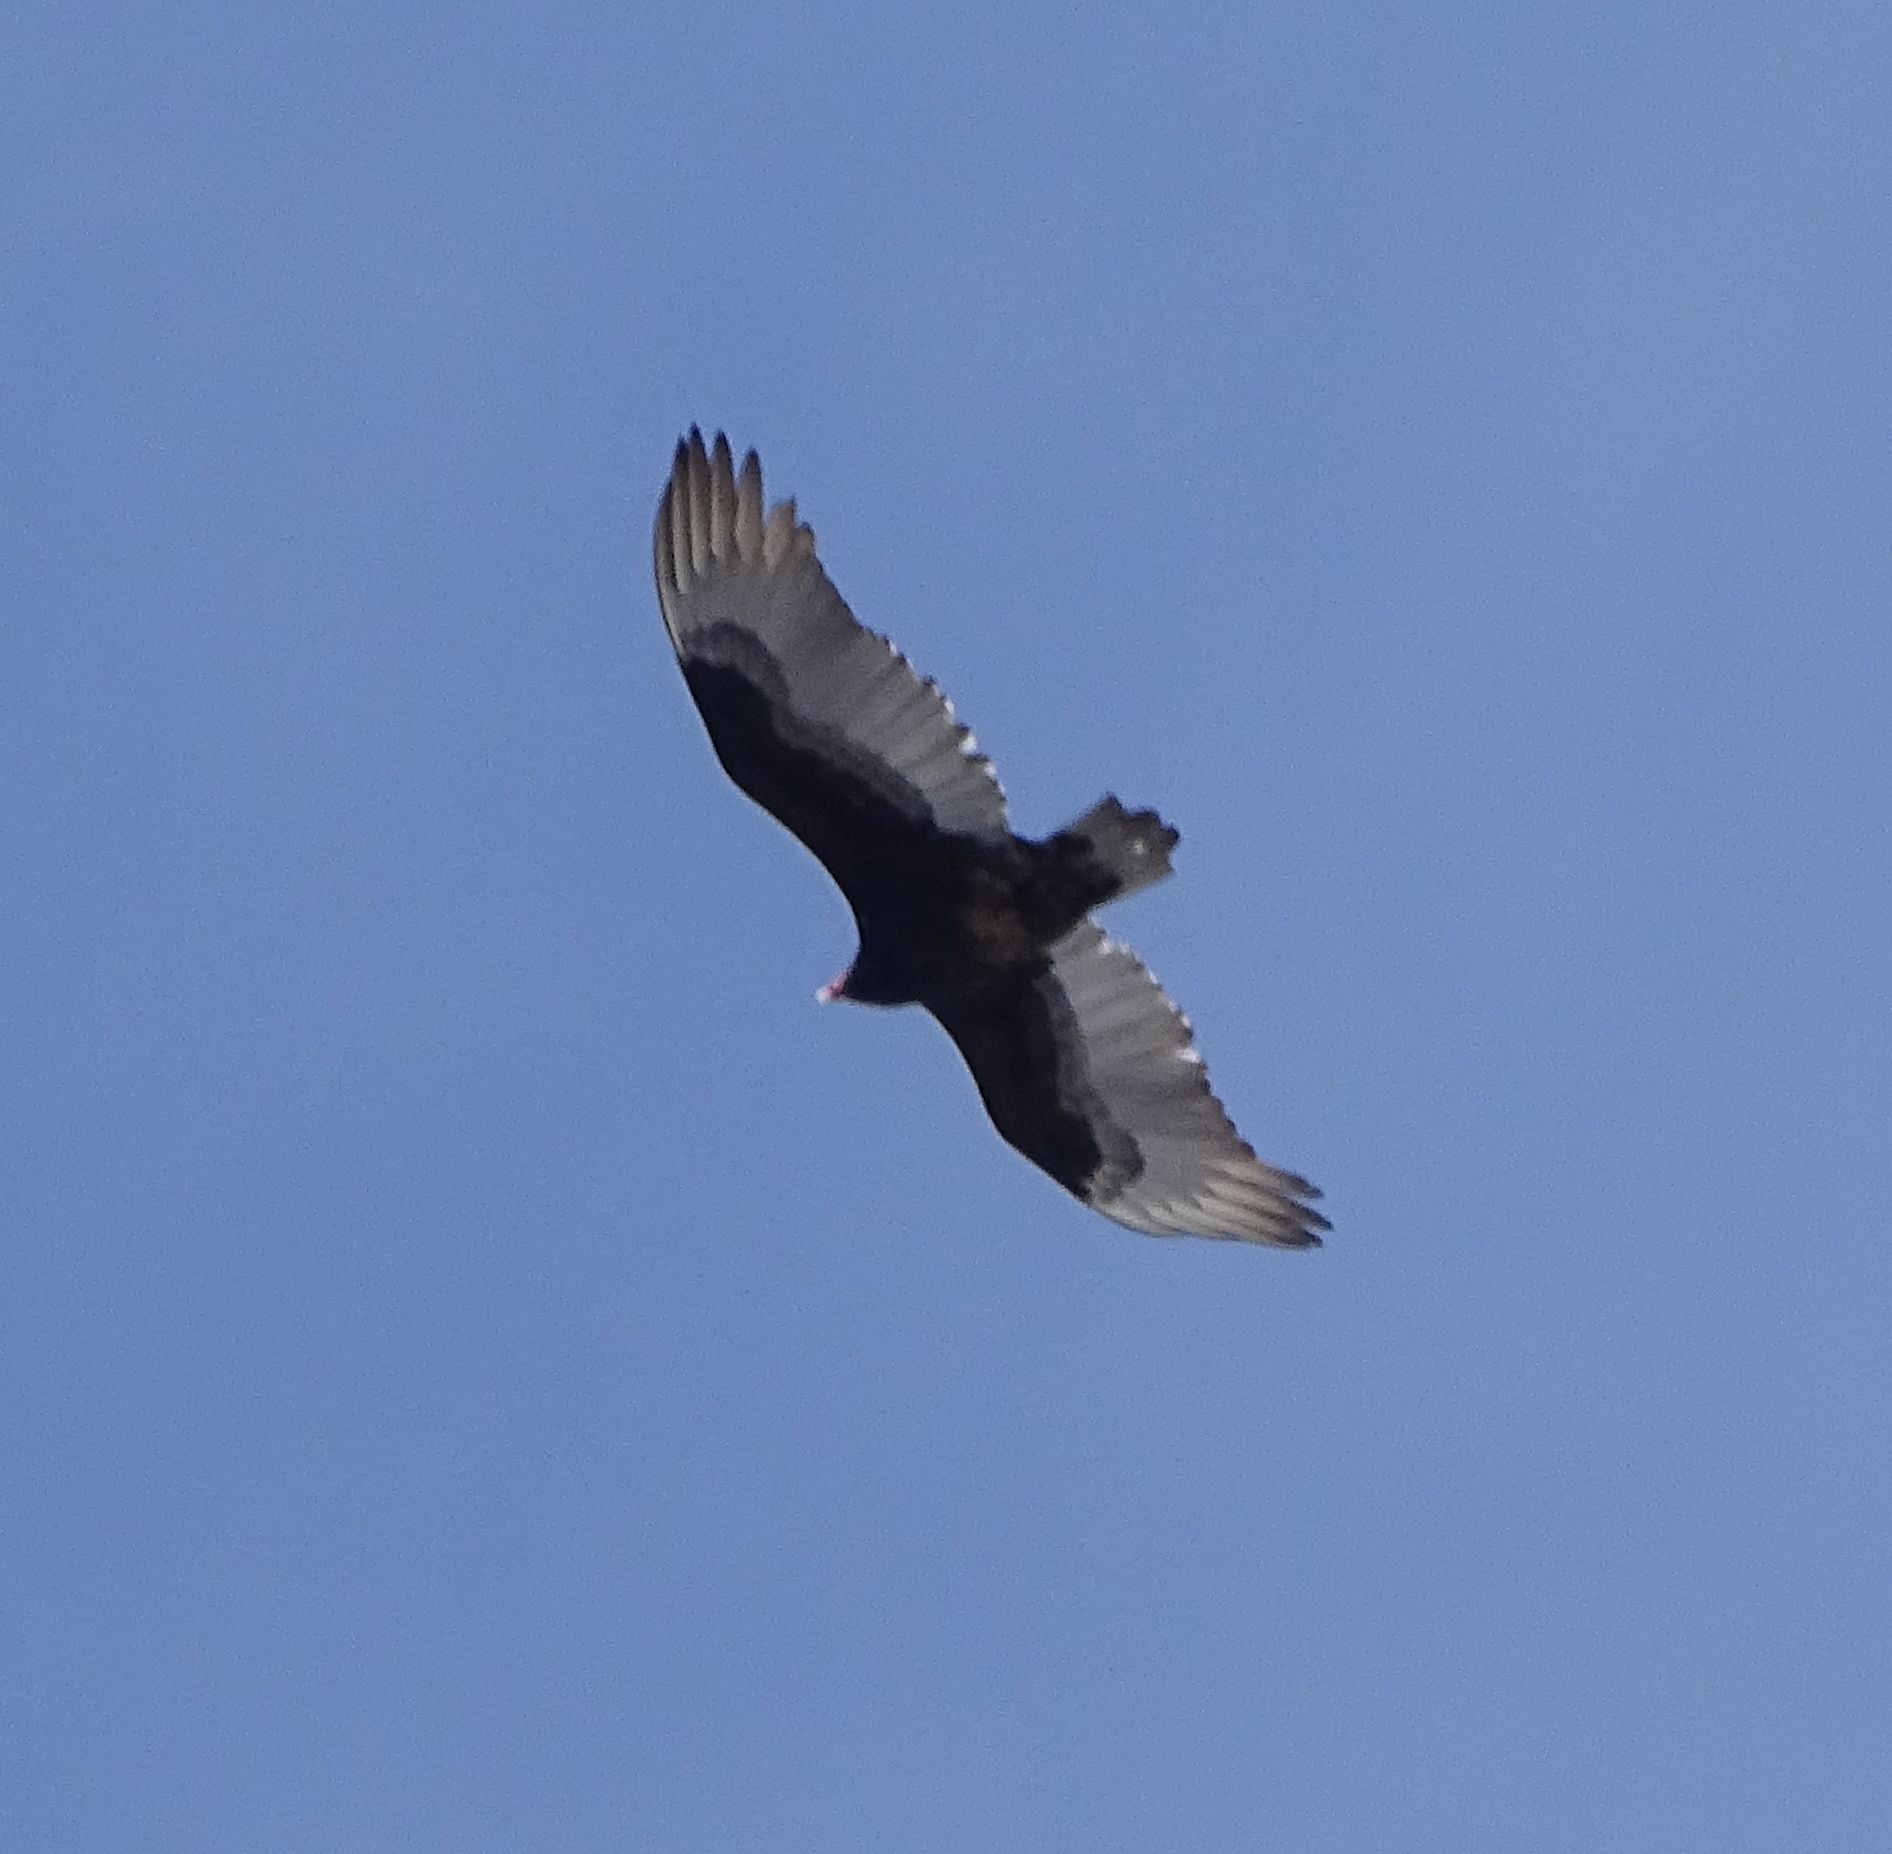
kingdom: Animalia
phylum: Chordata
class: Aves
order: Accipitriformes
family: Cathartidae
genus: Cathartes
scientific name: Cathartes aura
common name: Turkey vulture
